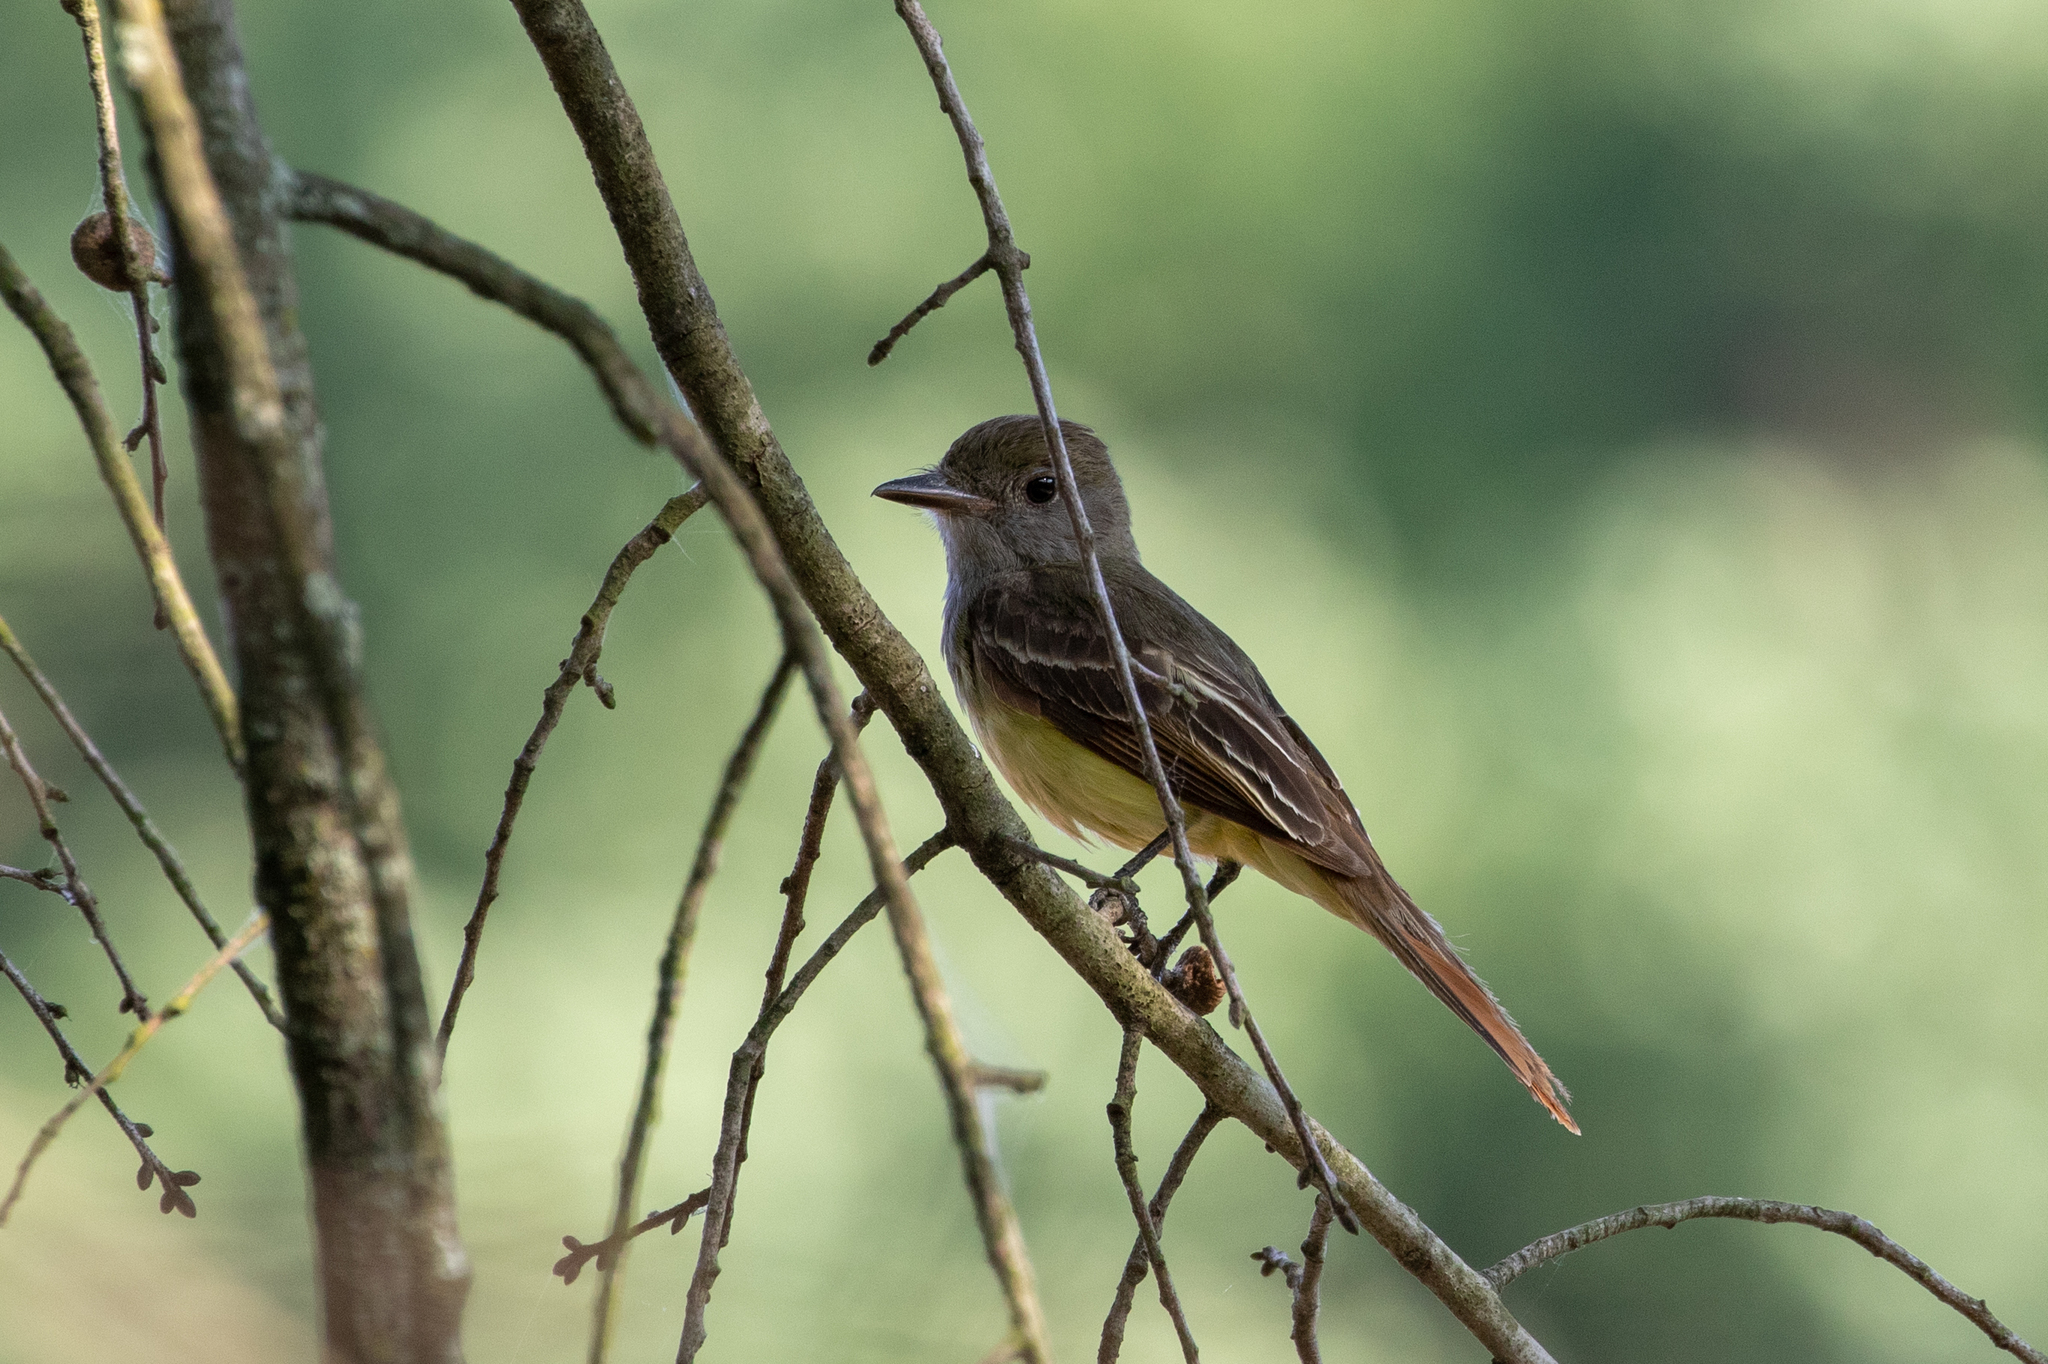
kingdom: Animalia
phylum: Chordata
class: Aves
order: Passeriformes
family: Tyrannidae
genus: Myiarchus
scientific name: Myiarchus crinitus
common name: Great crested flycatcher
